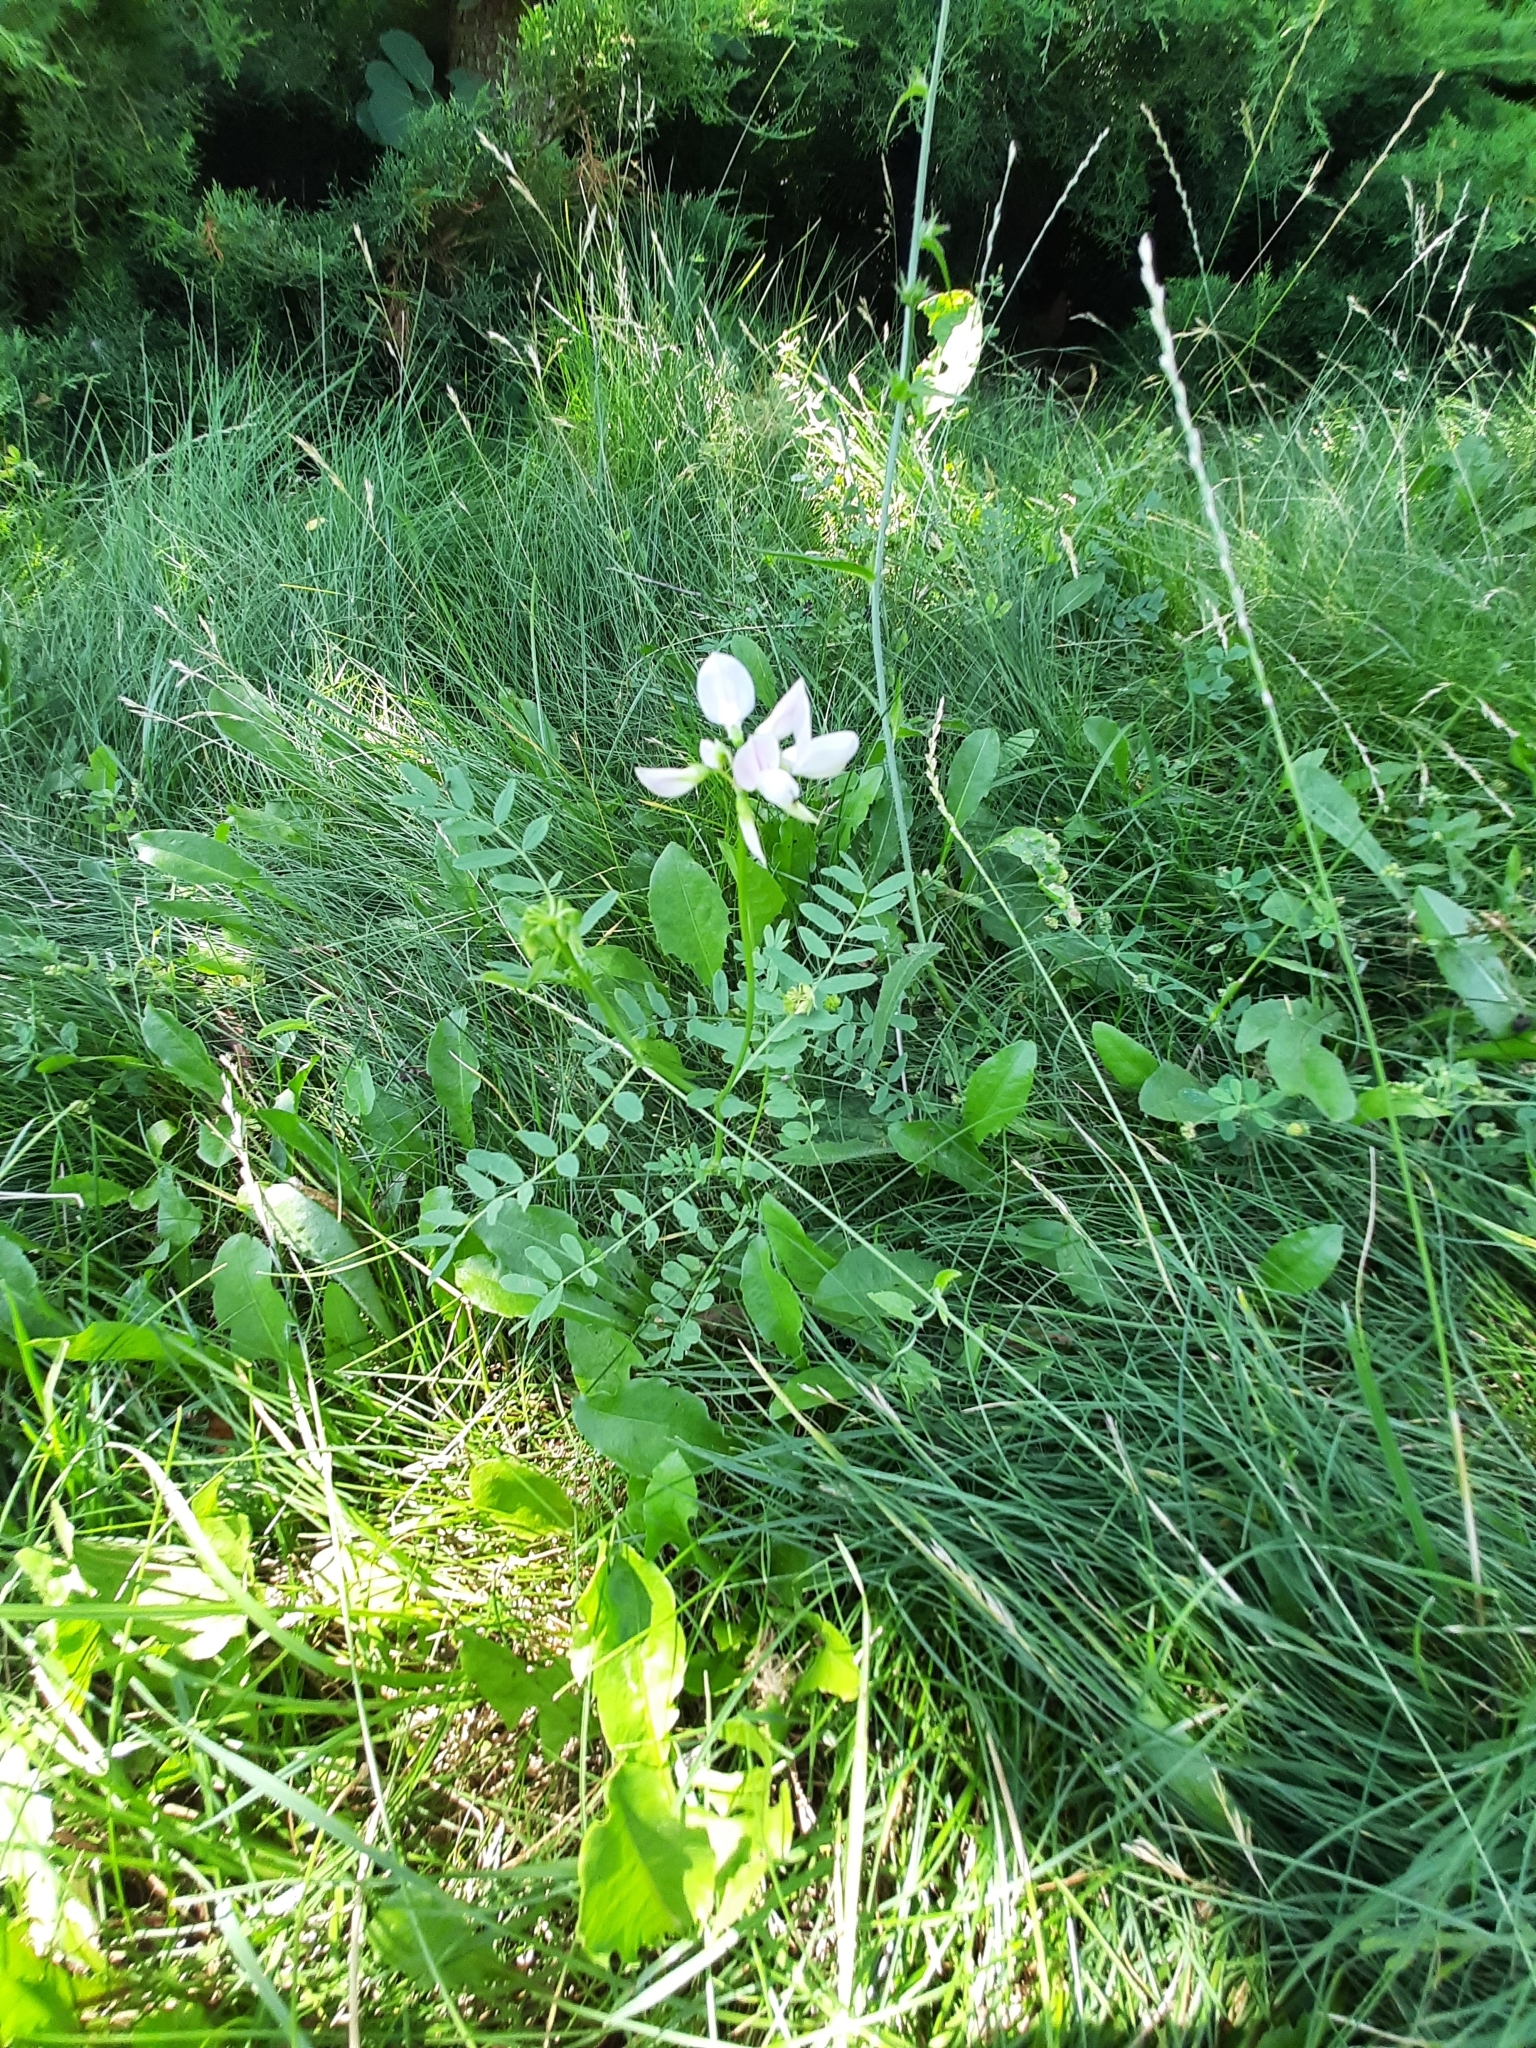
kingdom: Plantae
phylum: Tracheophyta
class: Magnoliopsida
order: Fabales
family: Fabaceae
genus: Coronilla
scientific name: Coronilla varia
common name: Crownvetch
